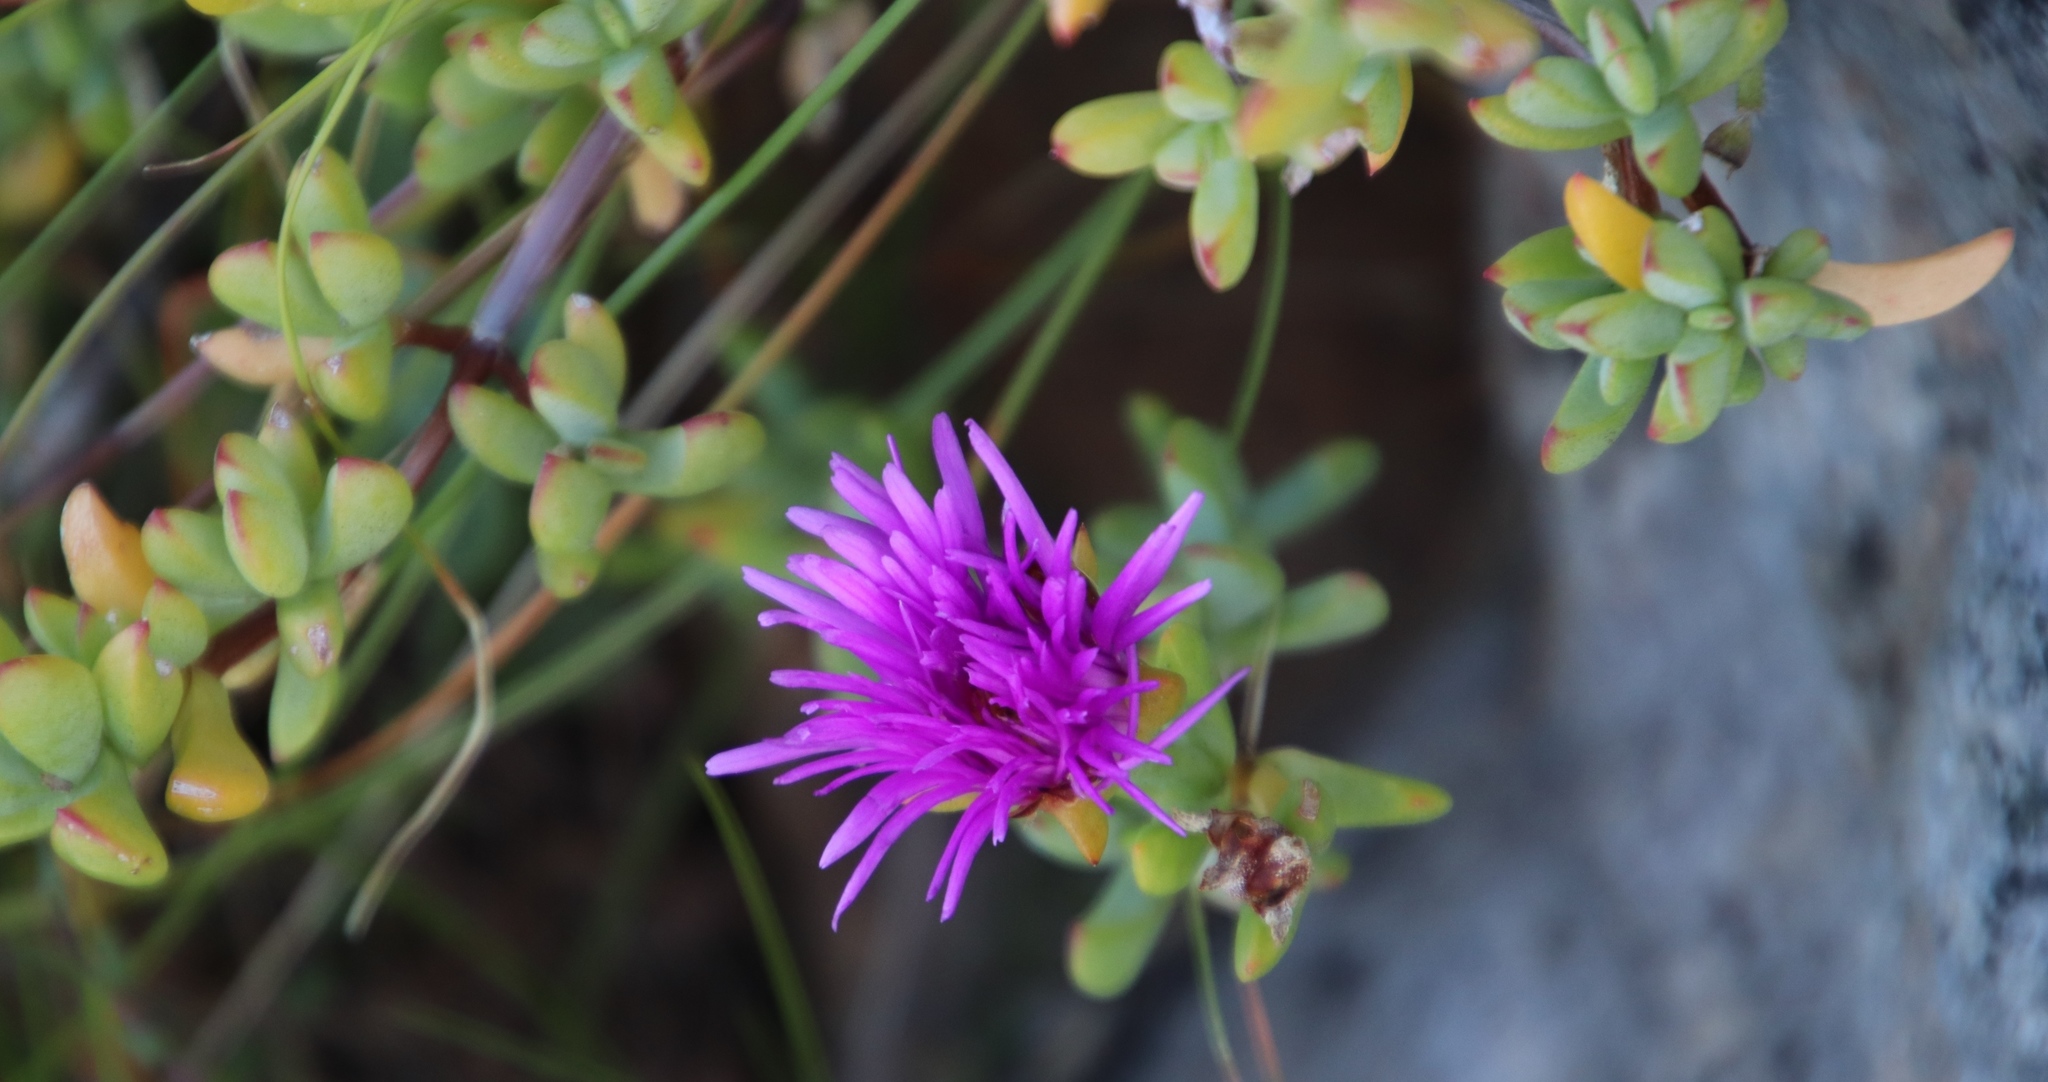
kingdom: Plantae
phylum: Tracheophyta
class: Magnoliopsida
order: Caryophyllales
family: Aizoaceae
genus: Oscularia
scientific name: Oscularia falciformis
